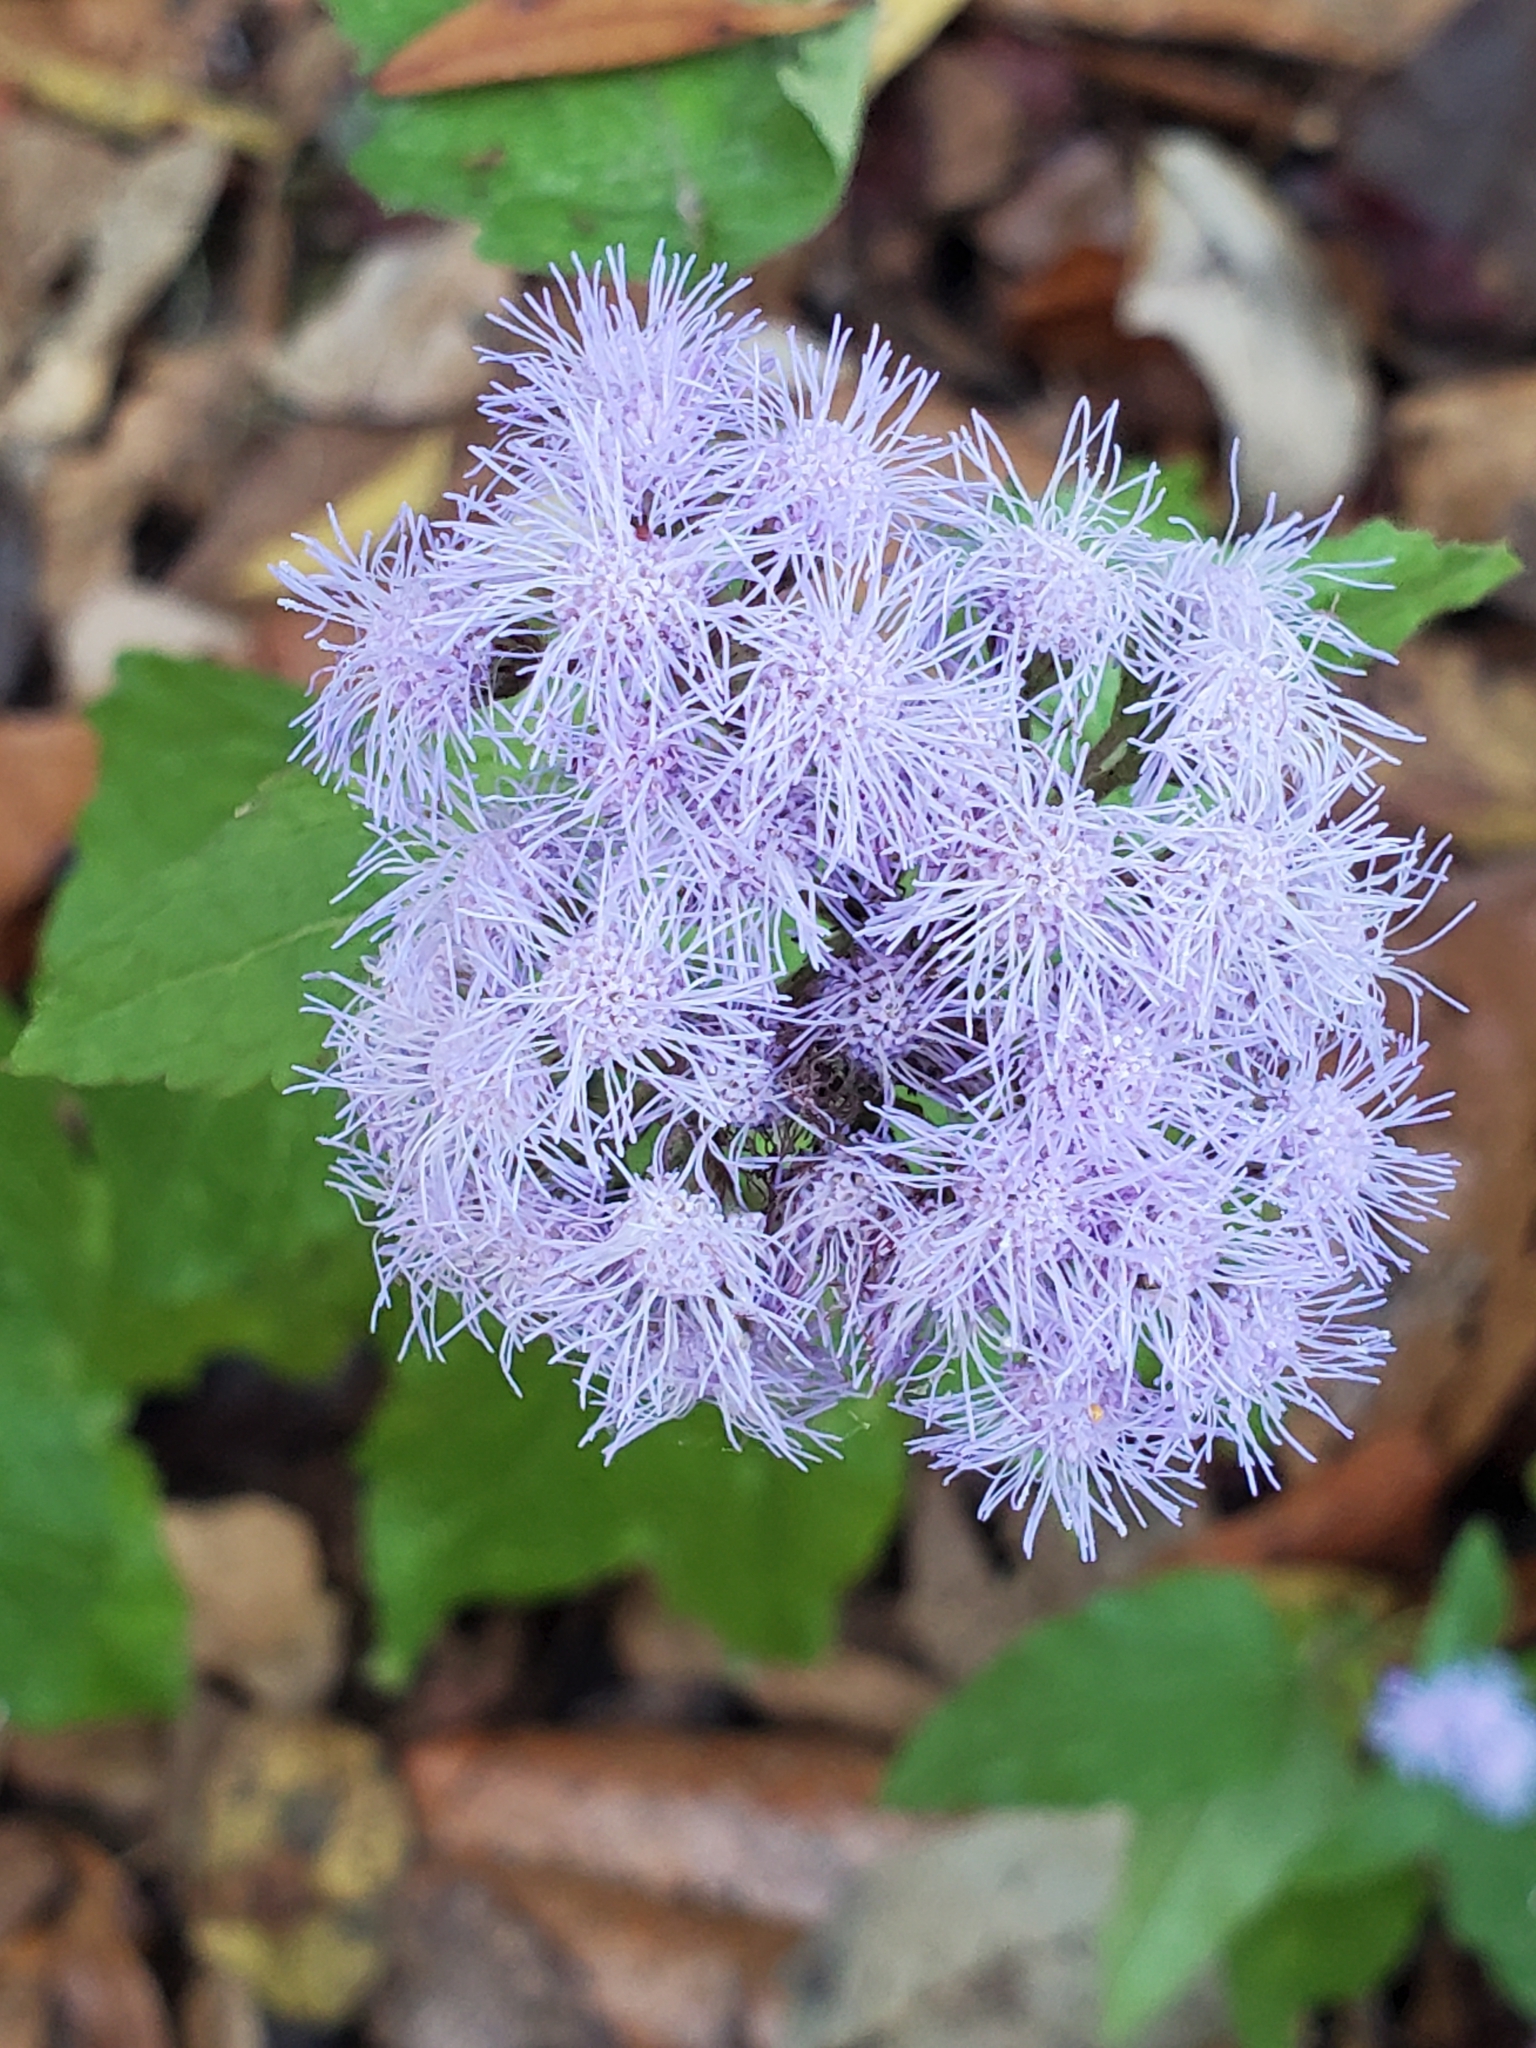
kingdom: Plantae
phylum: Tracheophyta
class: Magnoliopsida
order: Asterales
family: Asteraceae
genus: Conoclinium
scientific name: Conoclinium coelestinum
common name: Blue mistflower
